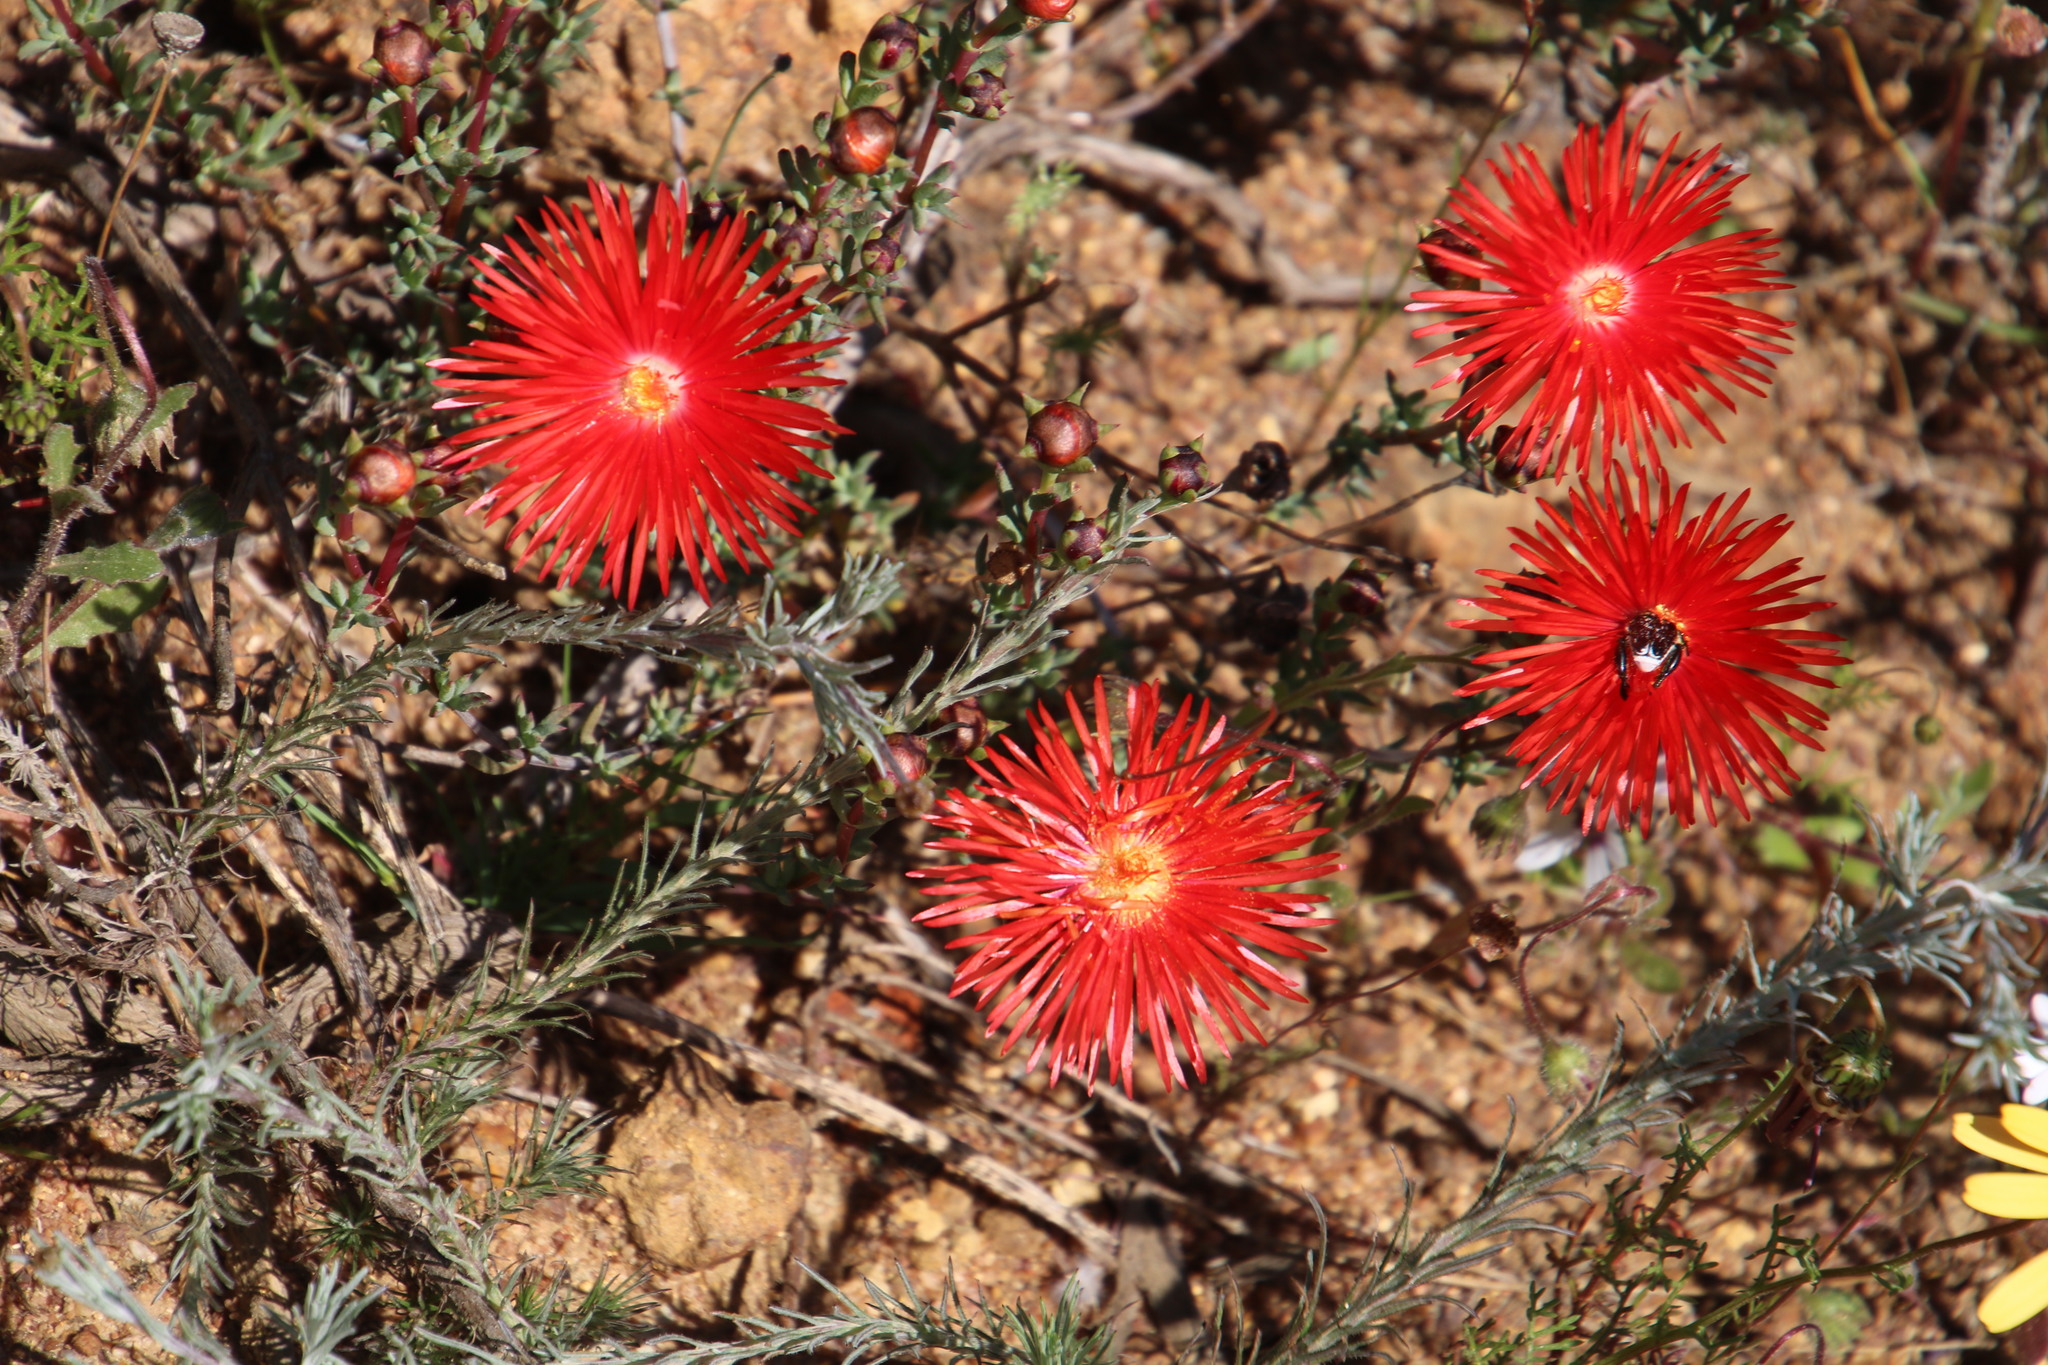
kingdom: Plantae
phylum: Tracheophyta
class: Magnoliopsida
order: Caryophyllales
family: Aizoaceae
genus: Lampranthus
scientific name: Lampranthus coccineus
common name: Redflush
